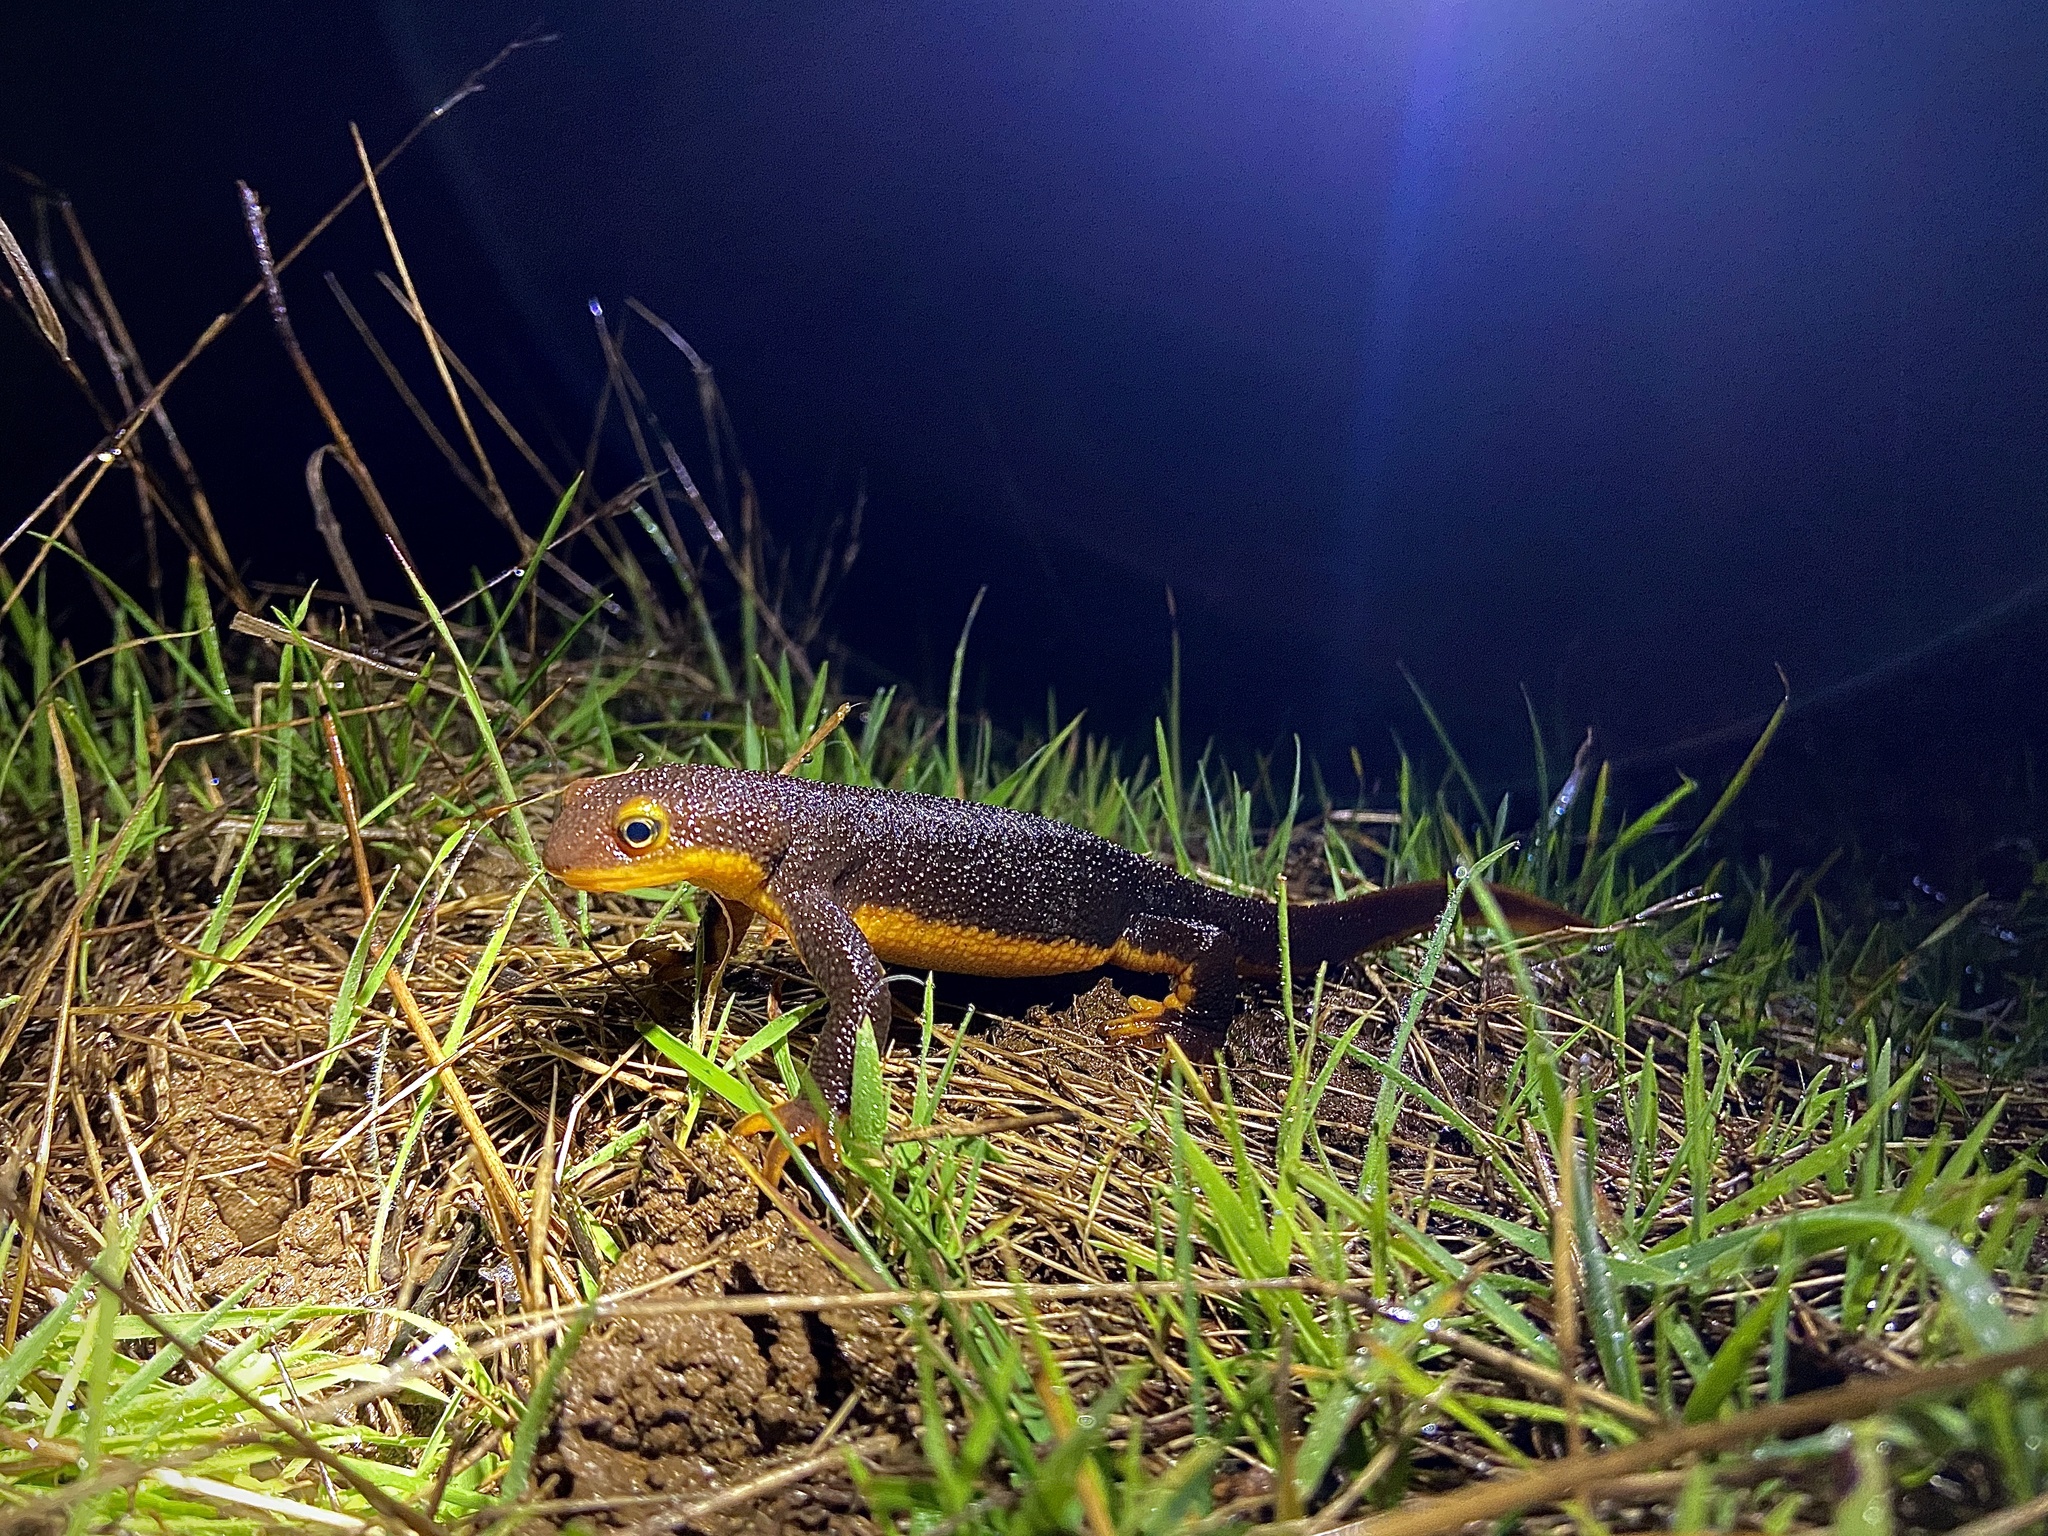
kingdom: Animalia
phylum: Chordata
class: Amphibia
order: Caudata
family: Salamandridae
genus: Taricha
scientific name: Taricha torosa
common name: California newt
